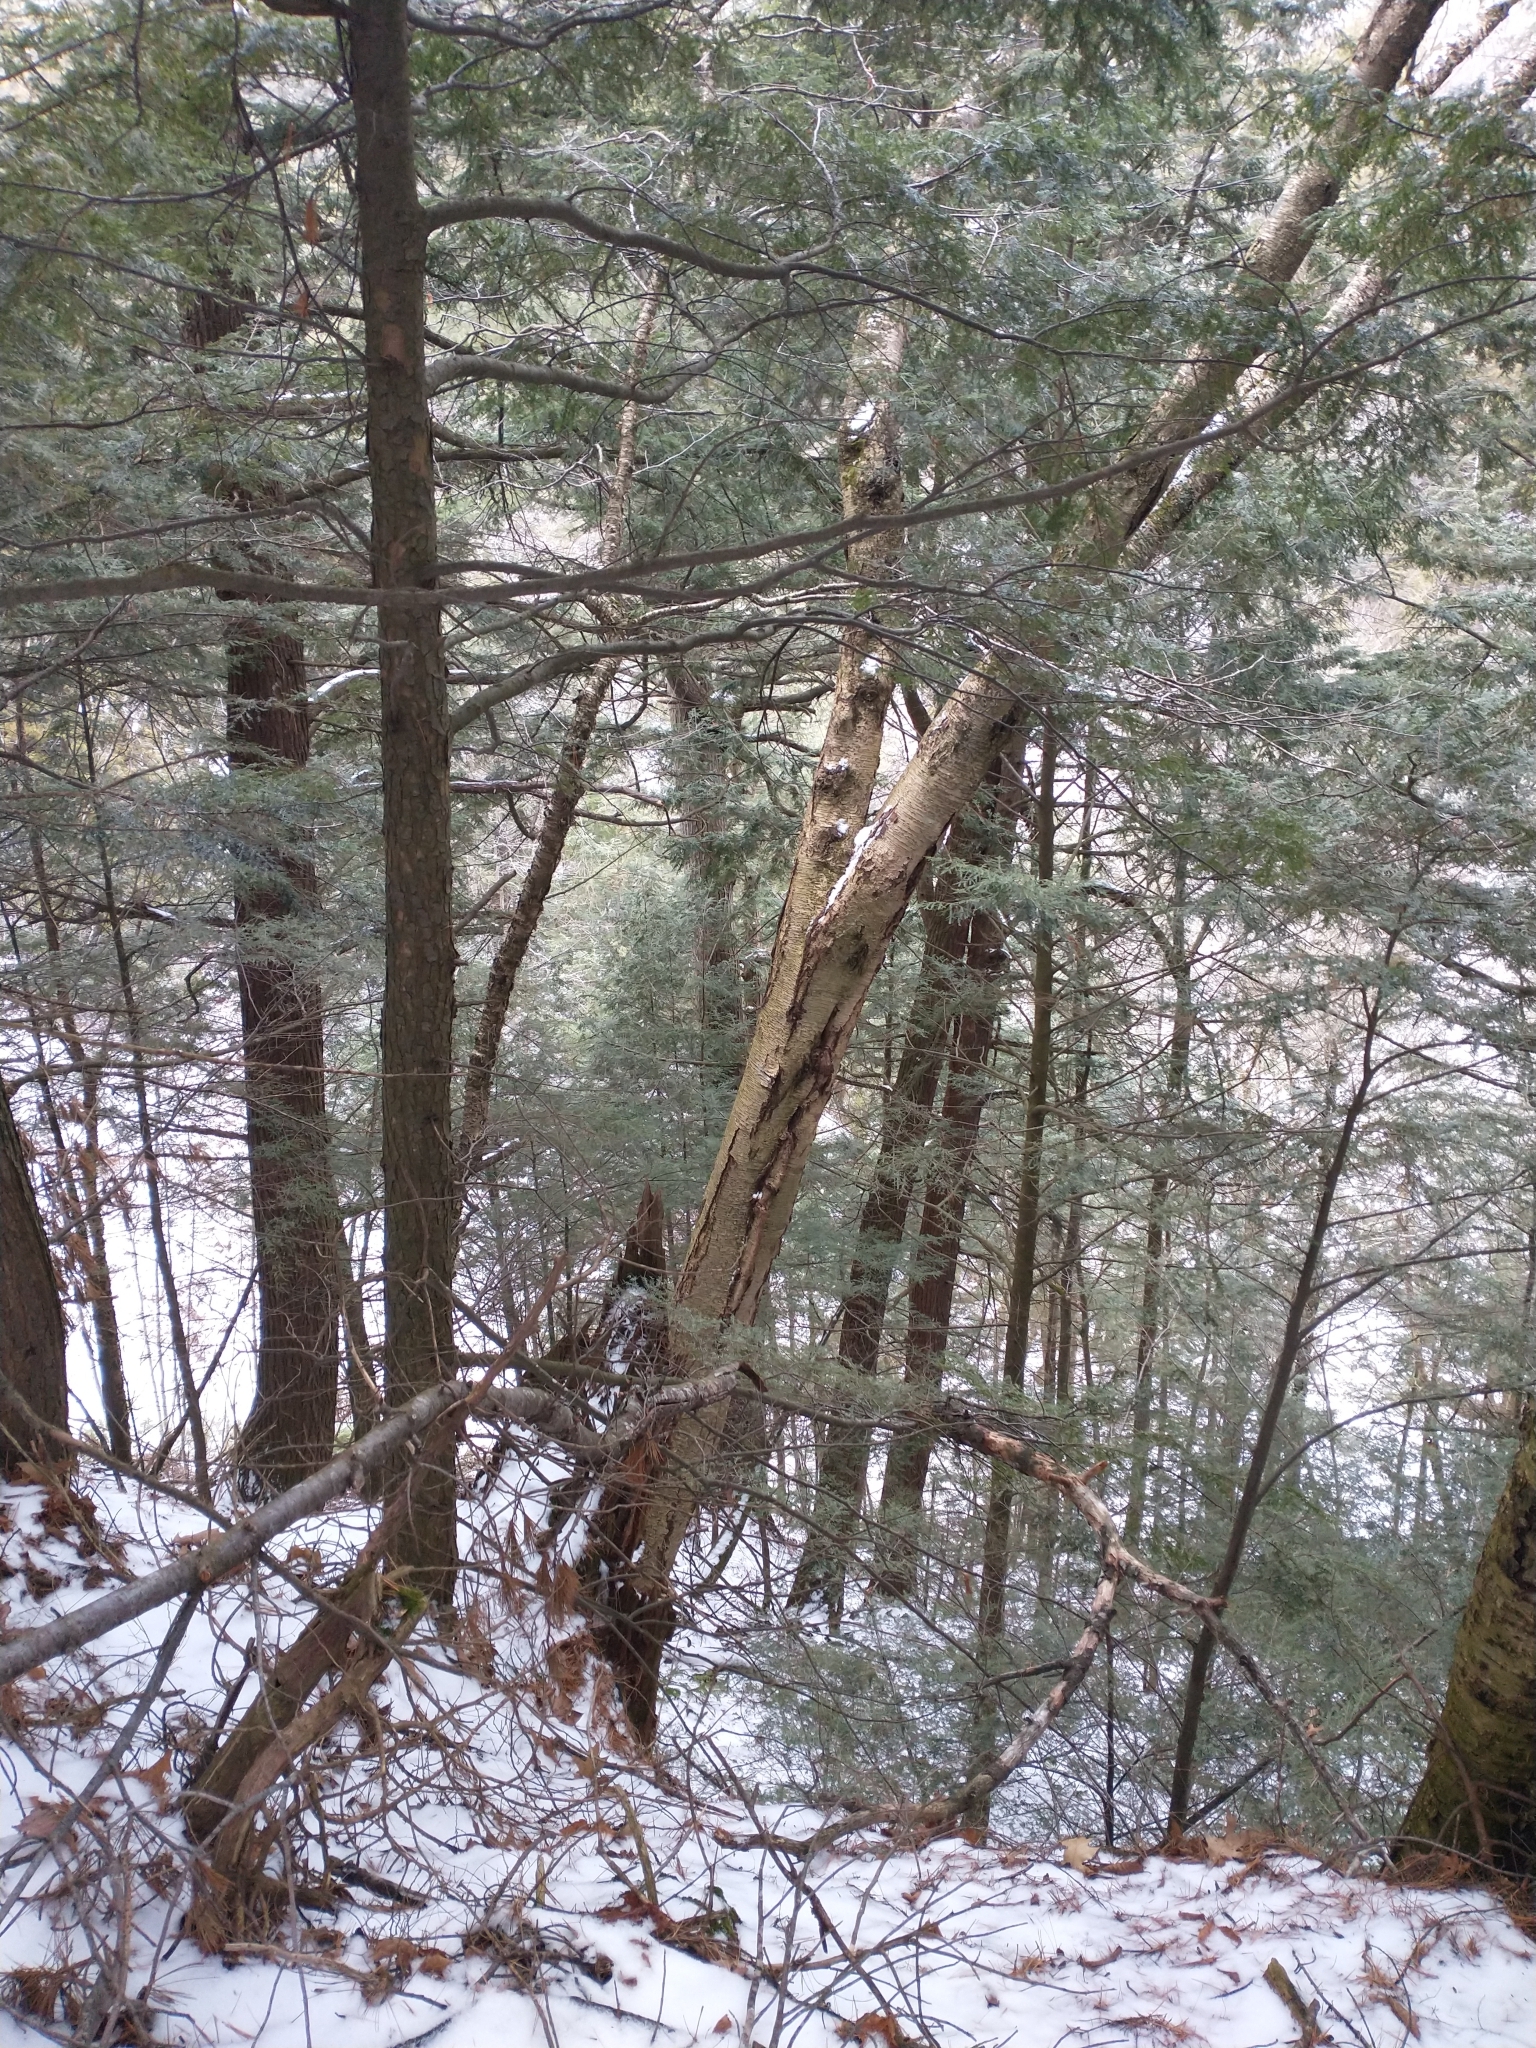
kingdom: Plantae
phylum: Tracheophyta
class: Magnoliopsida
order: Fagales
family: Betulaceae
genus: Betula
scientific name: Betula alleghaniensis
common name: Yellow birch
